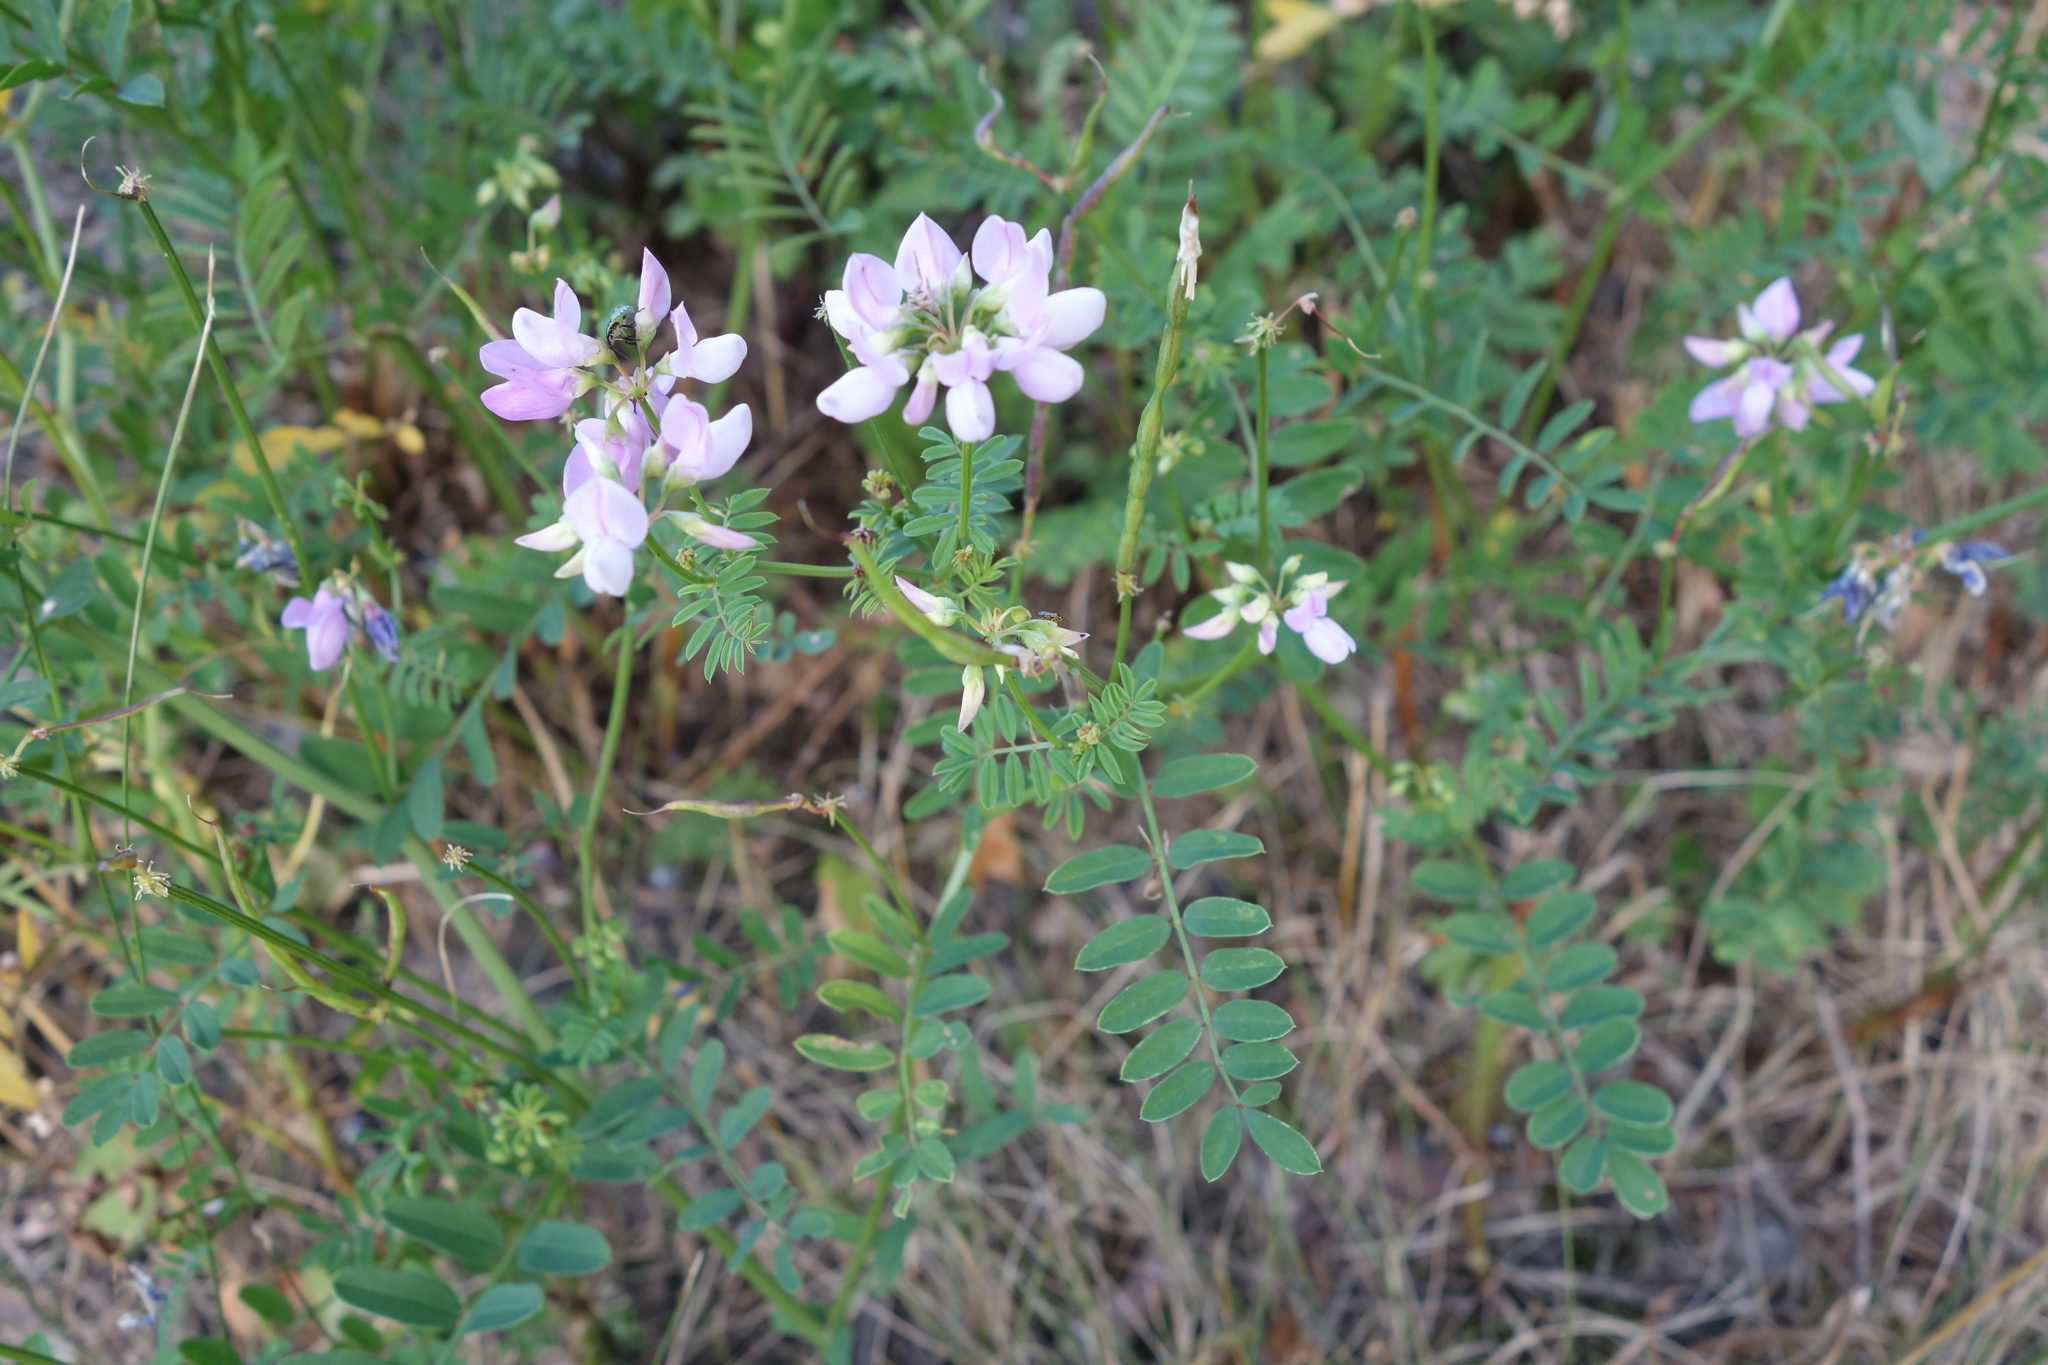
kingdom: Plantae
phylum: Tracheophyta
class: Magnoliopsida
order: Fabales
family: Fabaceae
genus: Coronilla
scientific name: Coronilla varia
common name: Crownvetch
